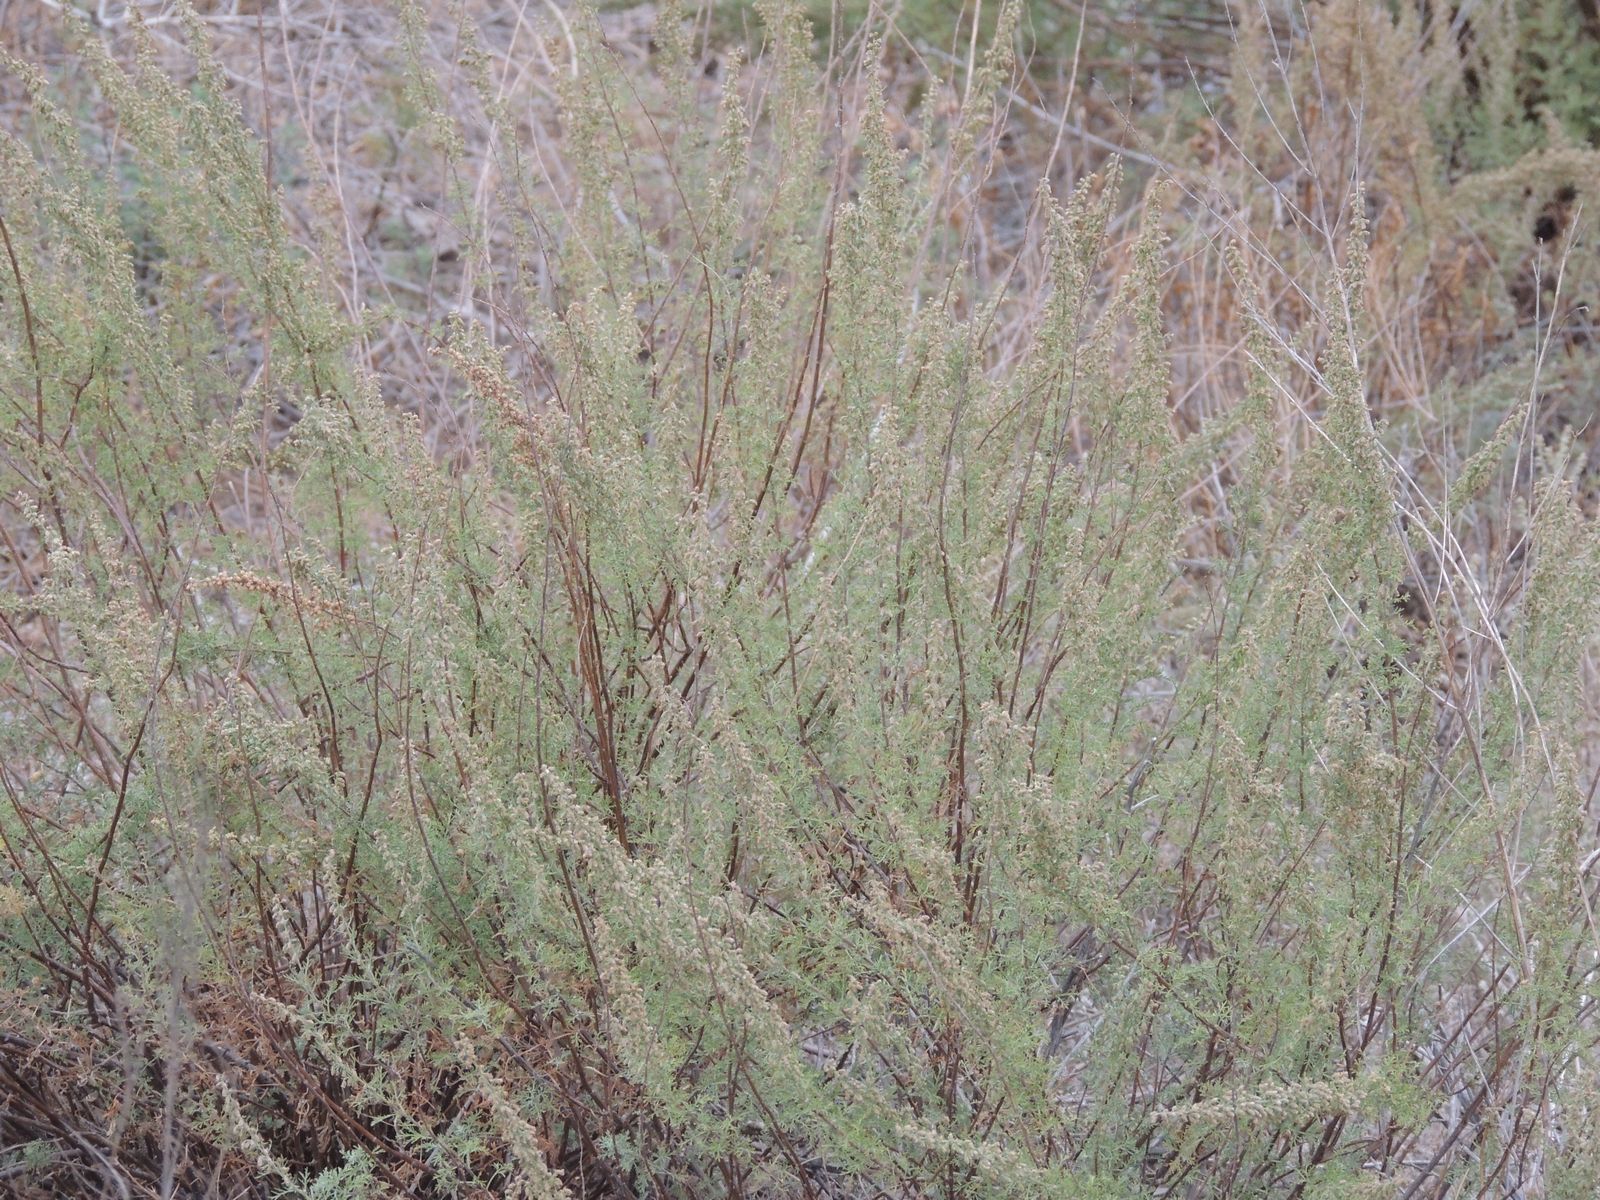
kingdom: Plantae
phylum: Tracheophyta
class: Magnoliopsida
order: Asterales
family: Asteraceae
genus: Artemisia
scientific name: Artemisia abrotanum
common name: Southernwood
